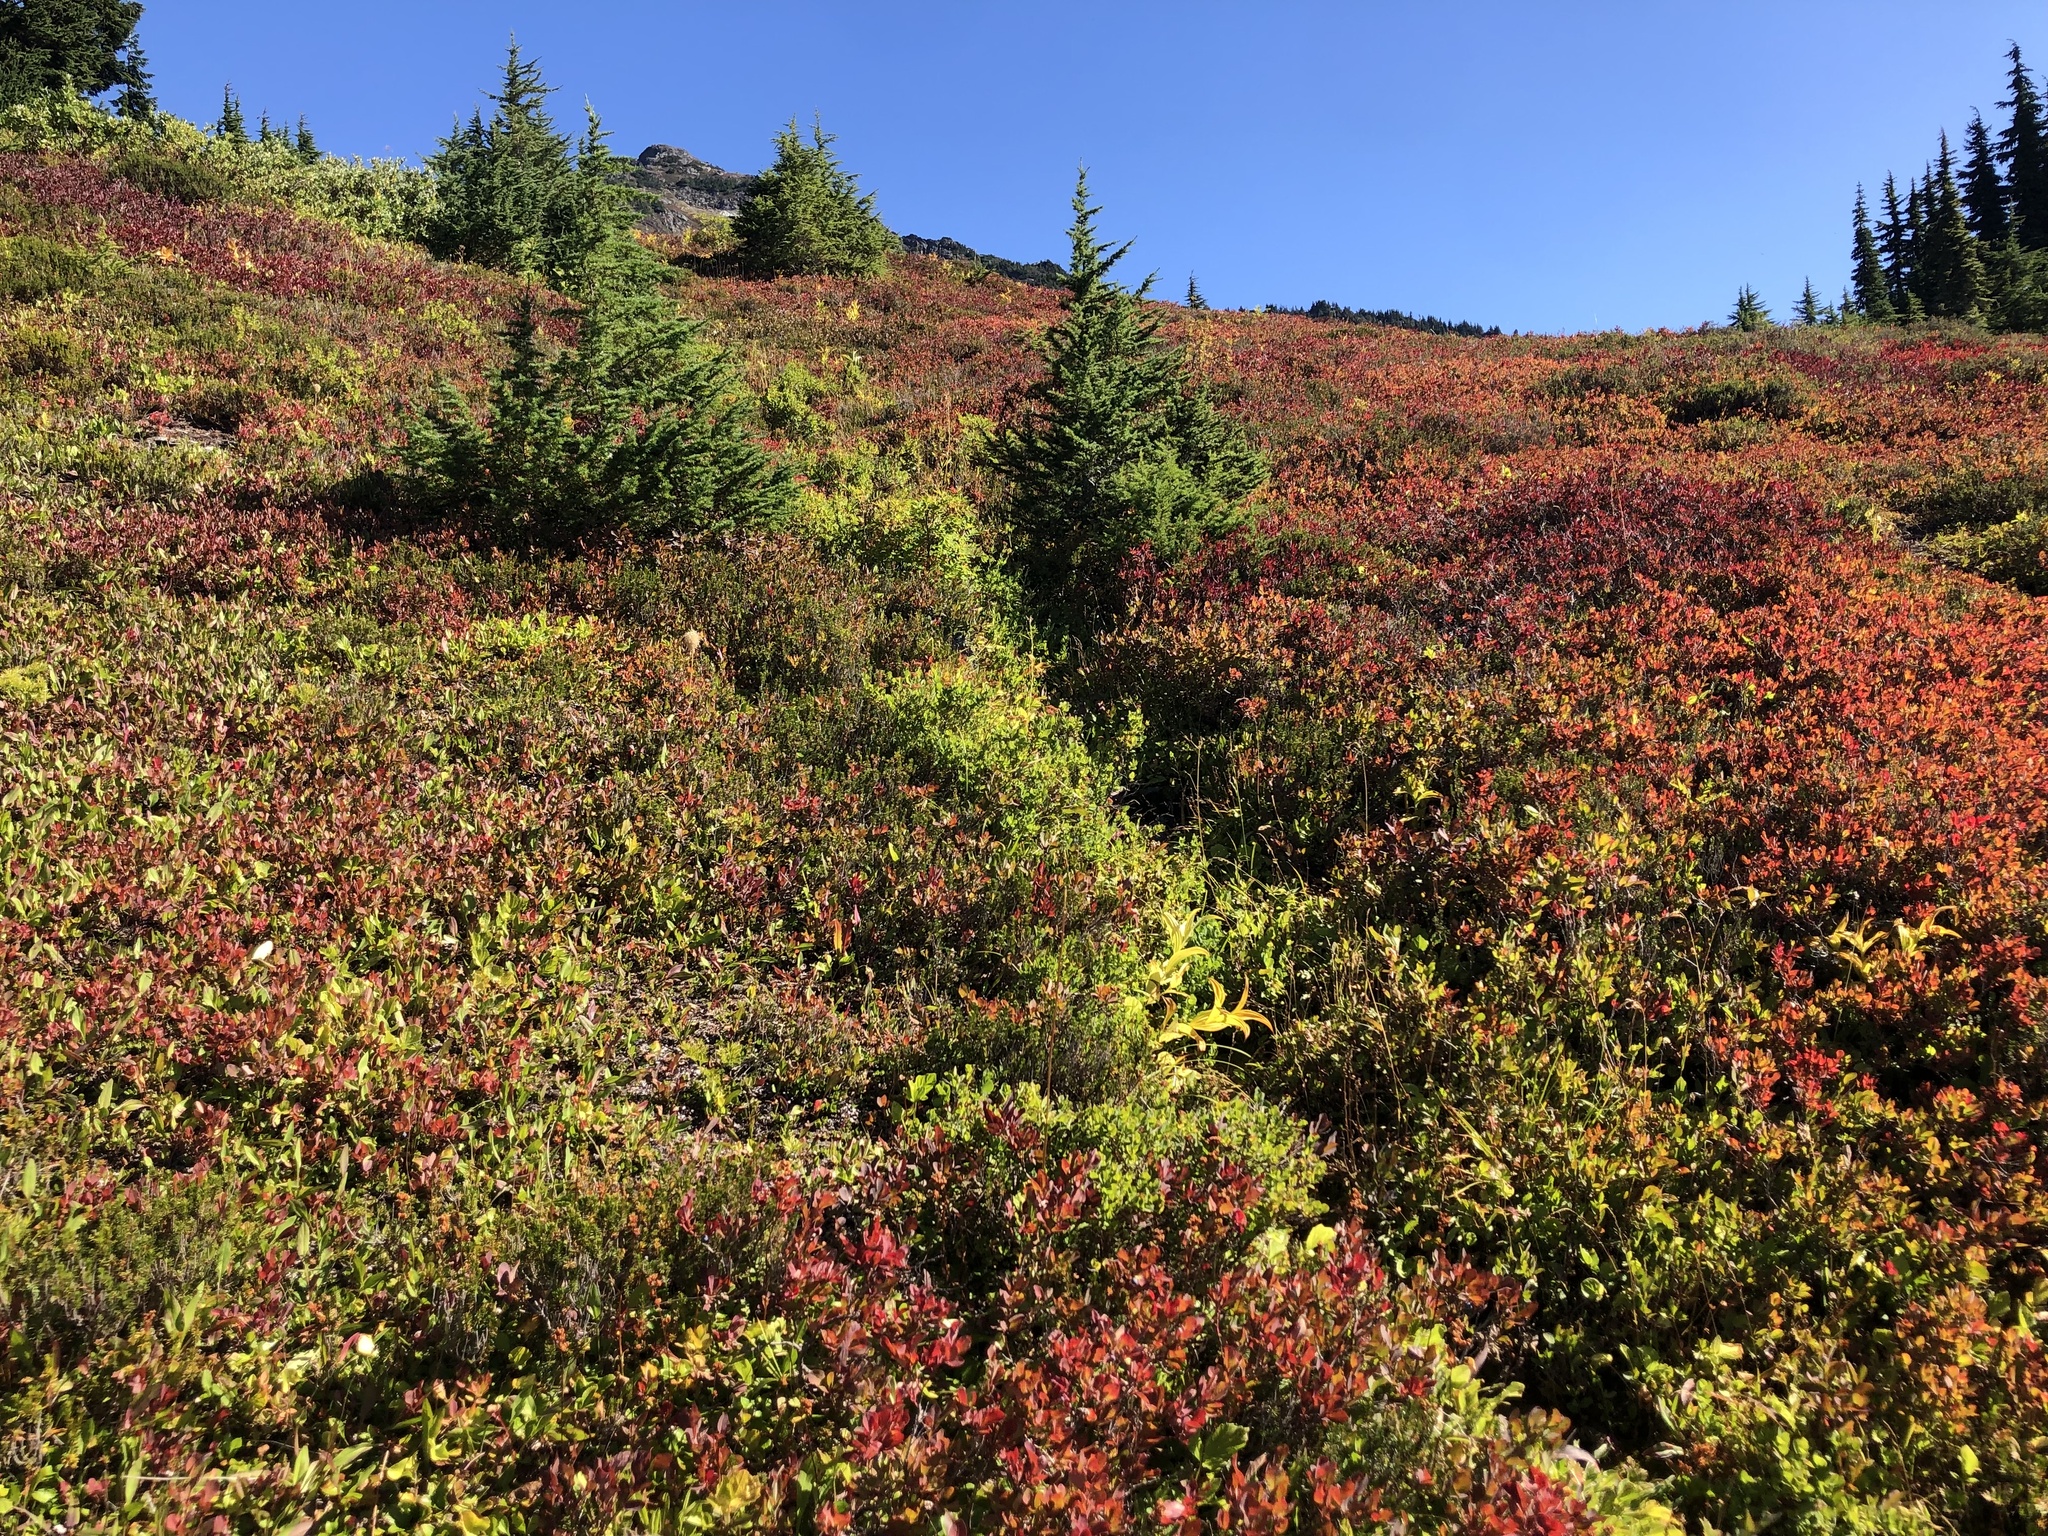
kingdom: Plantae
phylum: Tracheophyta
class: Pinopsida
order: Pinales
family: Pinaceae
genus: Tsuga
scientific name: Tsuga mertensiana
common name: Mountain hemlock
